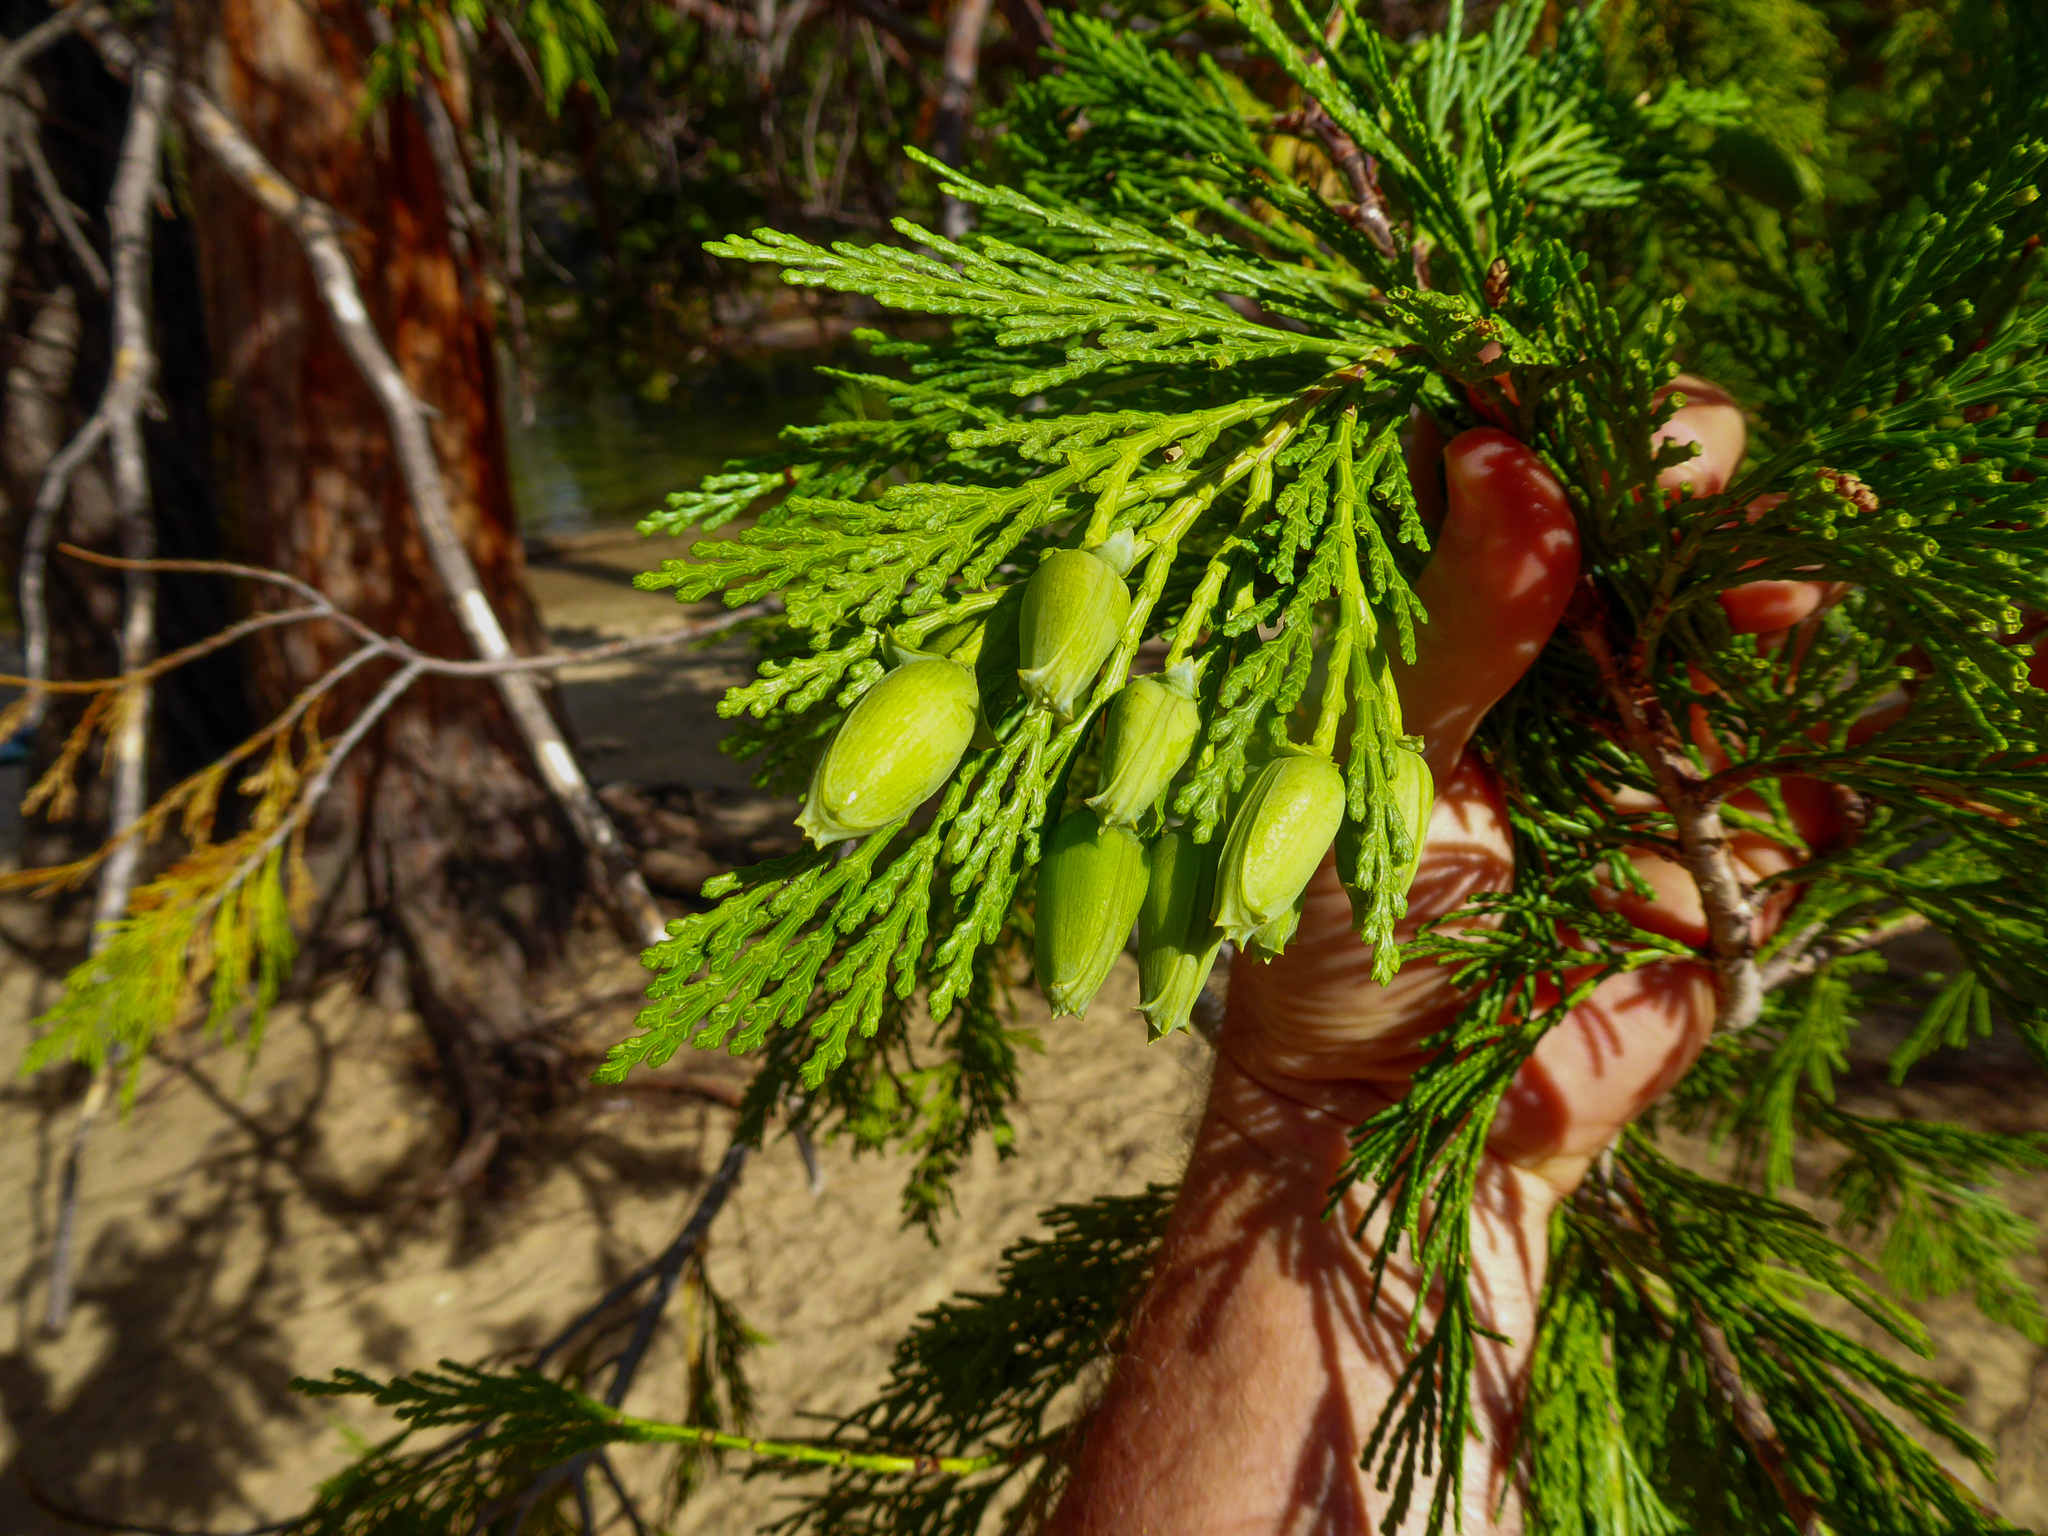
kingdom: Plantae
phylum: Tracheophyta
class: Pinopsida
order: Pinales
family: Cupressaceae
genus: Calocedrus
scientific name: Calocedrus decurrens
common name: Californian incense-cedar
